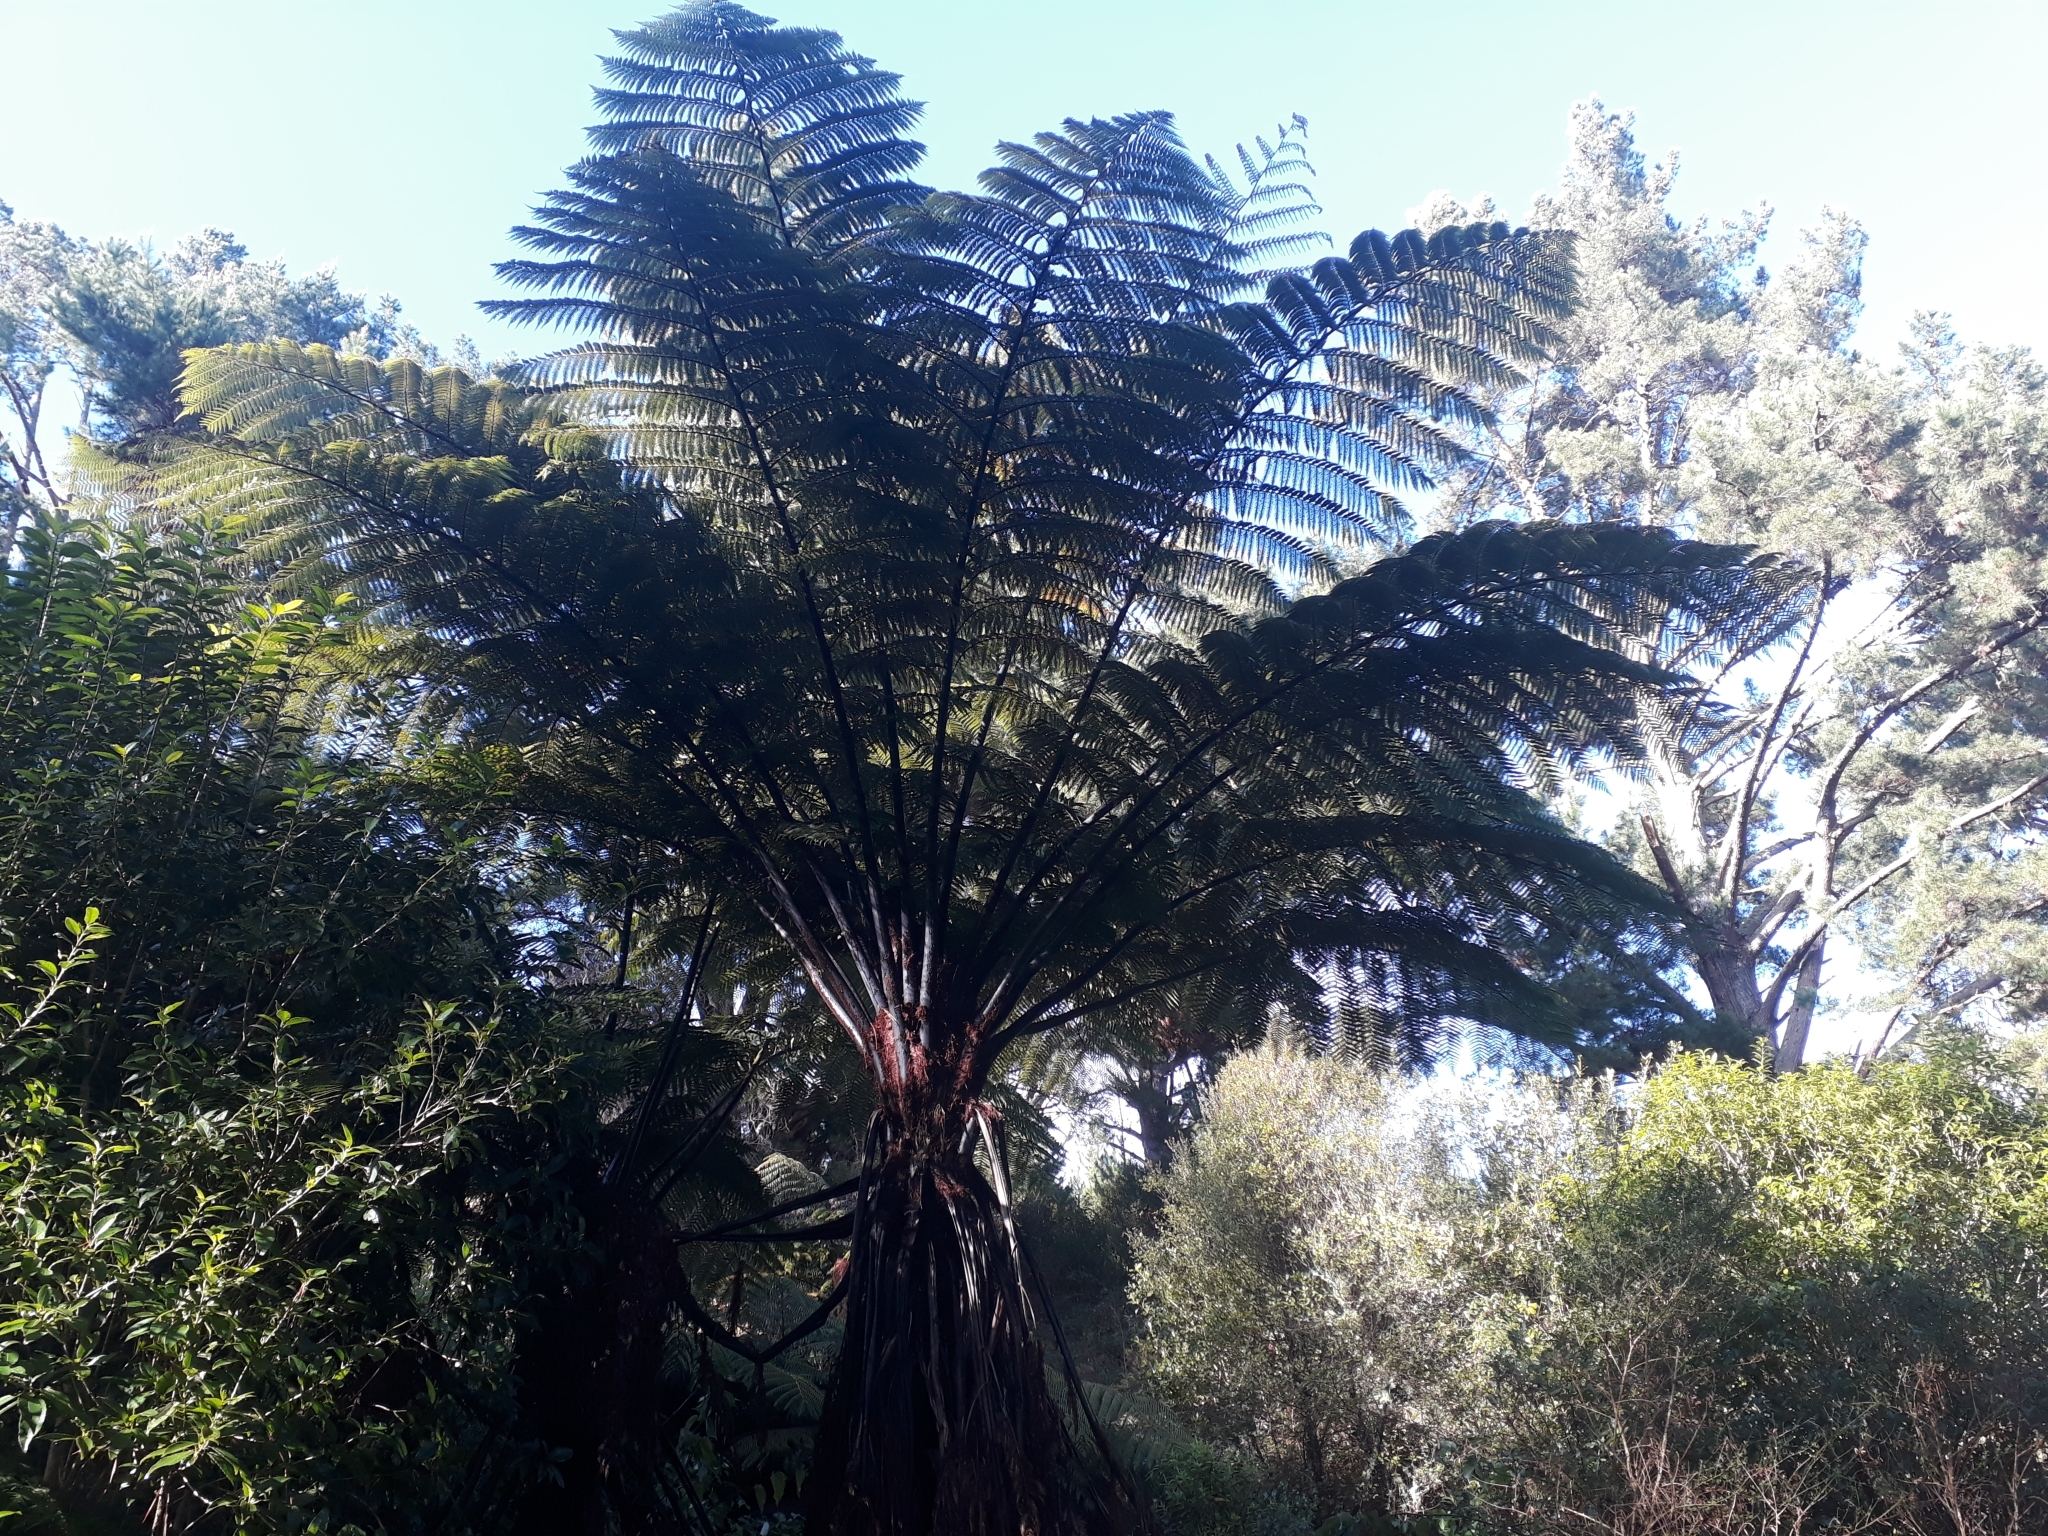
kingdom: Plantae
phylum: Tracheophyta
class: Polypodiopsida
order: Cyatheales
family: Cyatheaceae
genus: Sphaeropteris
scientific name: Sphaeropteris medullaris
